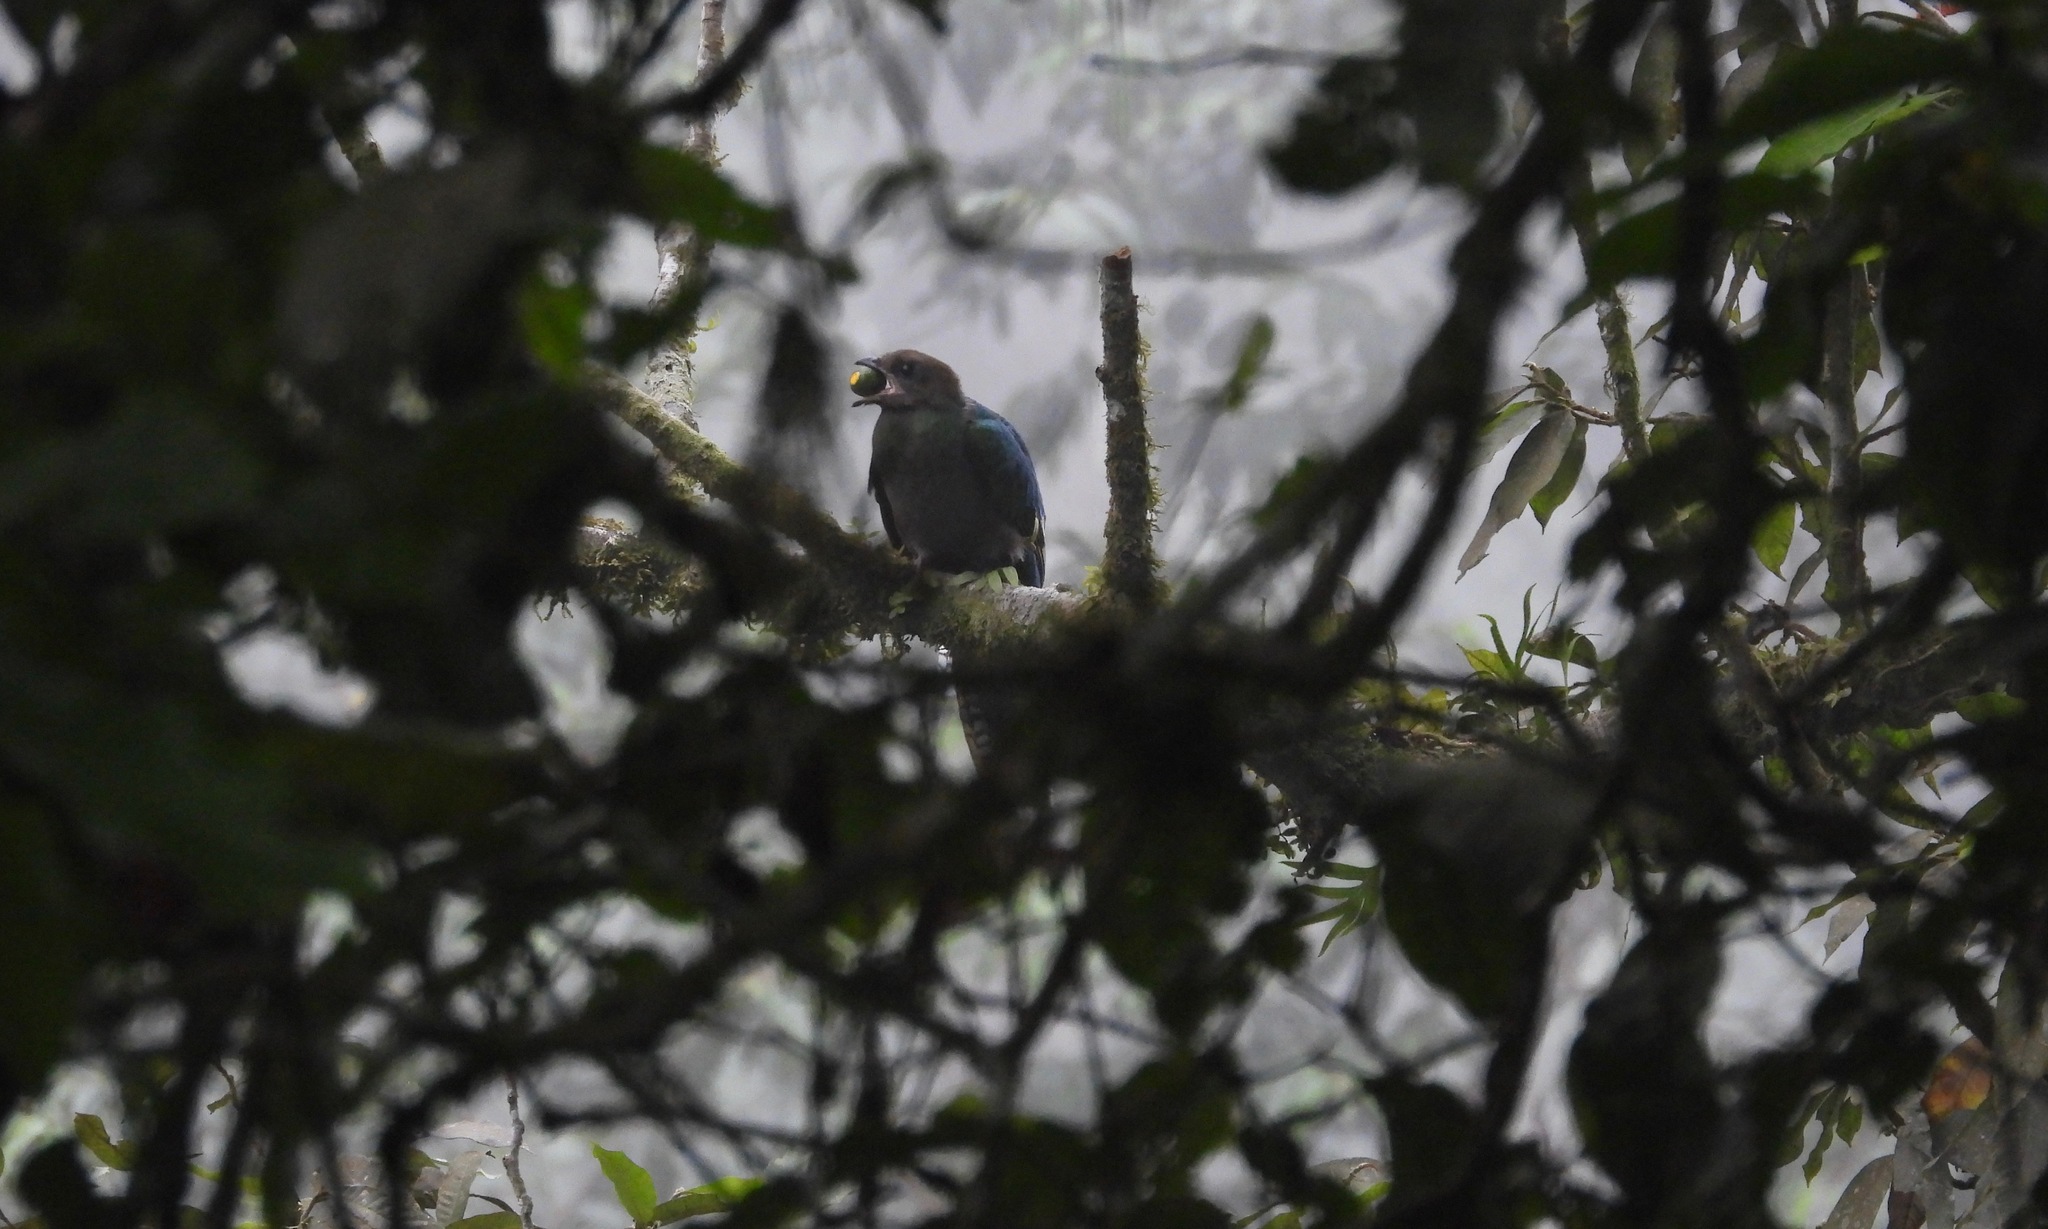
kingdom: Animalia
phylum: Chordata
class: Aves
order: Trogoniformes
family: Trogonidae
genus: Pharomachrus
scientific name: Pharomachrus mocinno
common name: Resplendent quetzal
